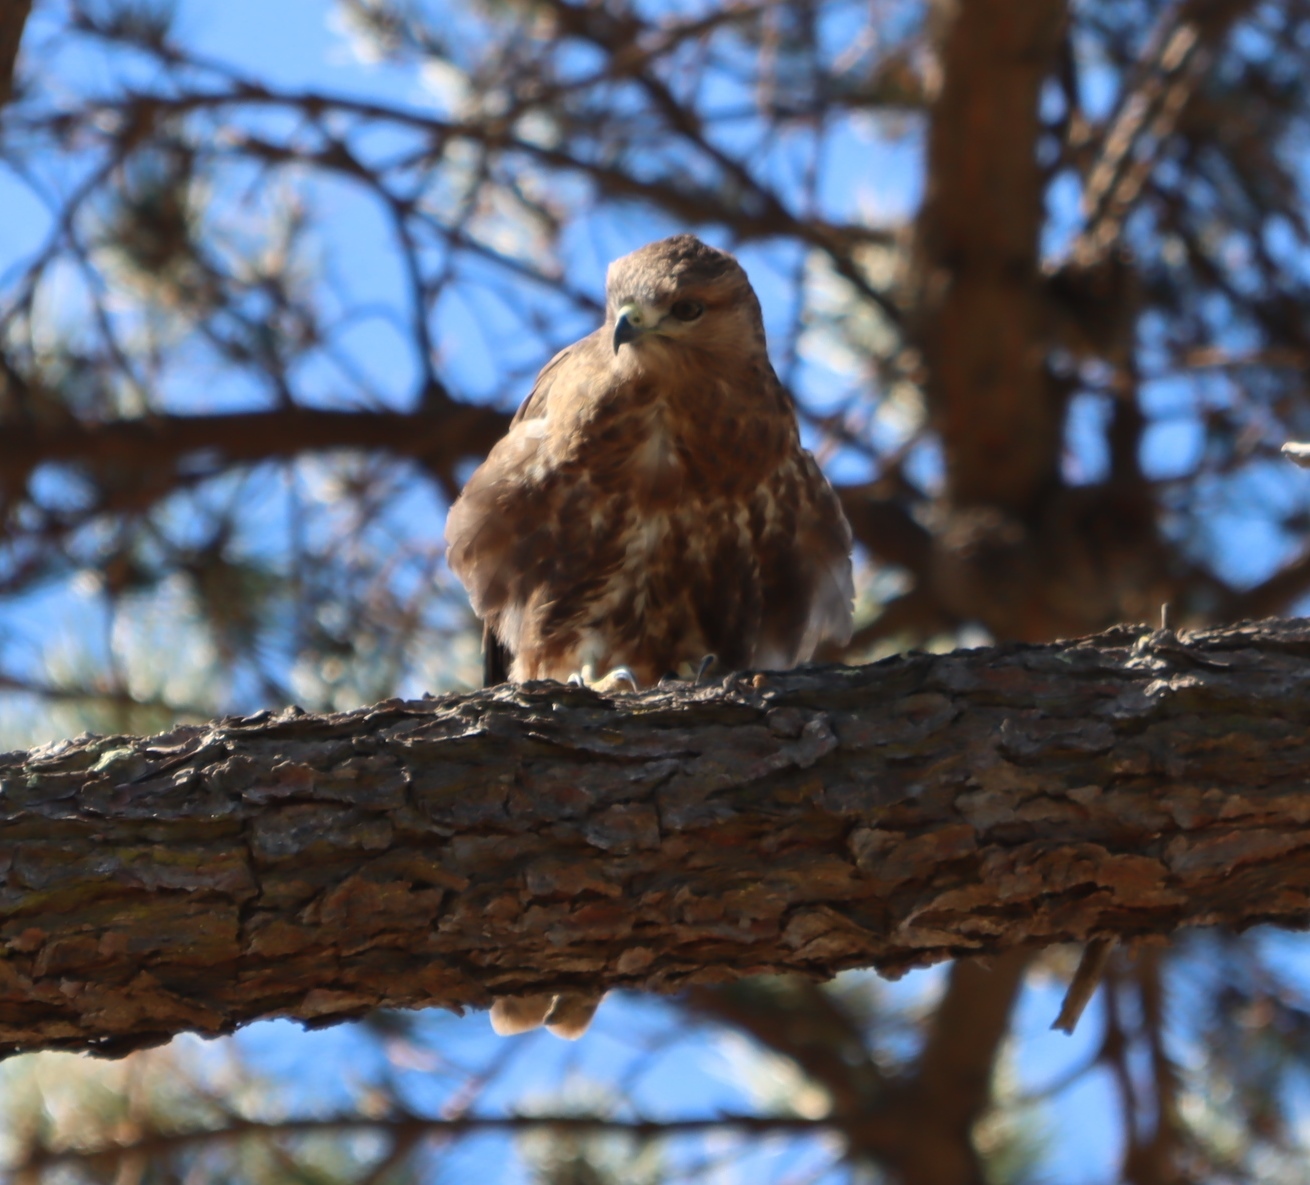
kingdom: Animalia
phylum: Chordata
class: Aves
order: Accipitriformes
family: Accipitridae
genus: Buteo
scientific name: Buteo buteo
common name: Common buzzard
